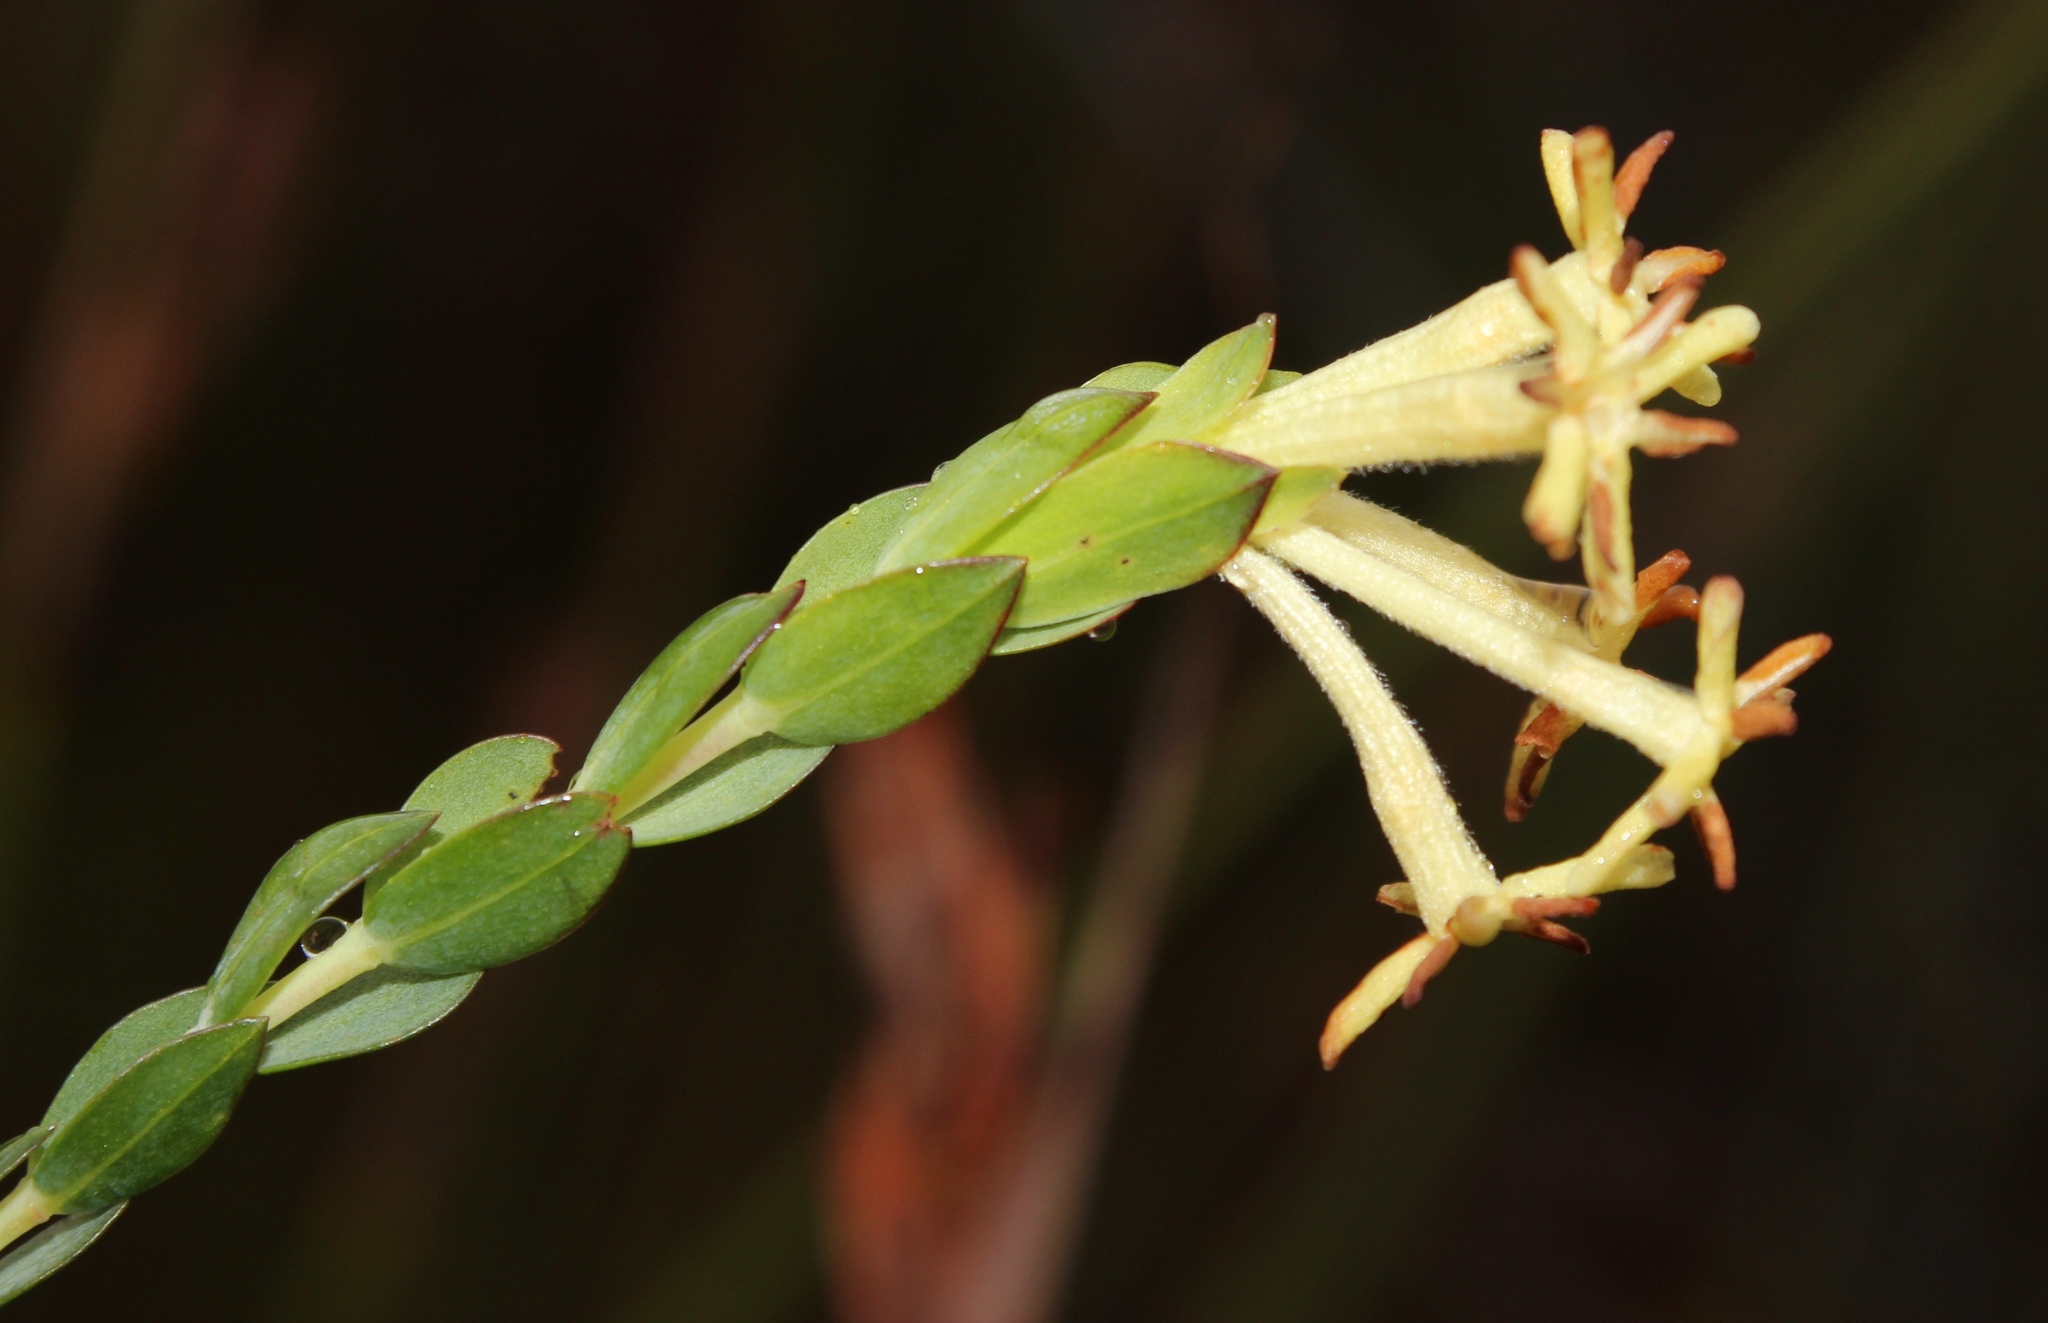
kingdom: Plantae
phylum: Tracheophyta
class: Magnoliopsida
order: Malvales
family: Thymelaeaceae
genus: Gnidia
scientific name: Gnidia oppositifolia
